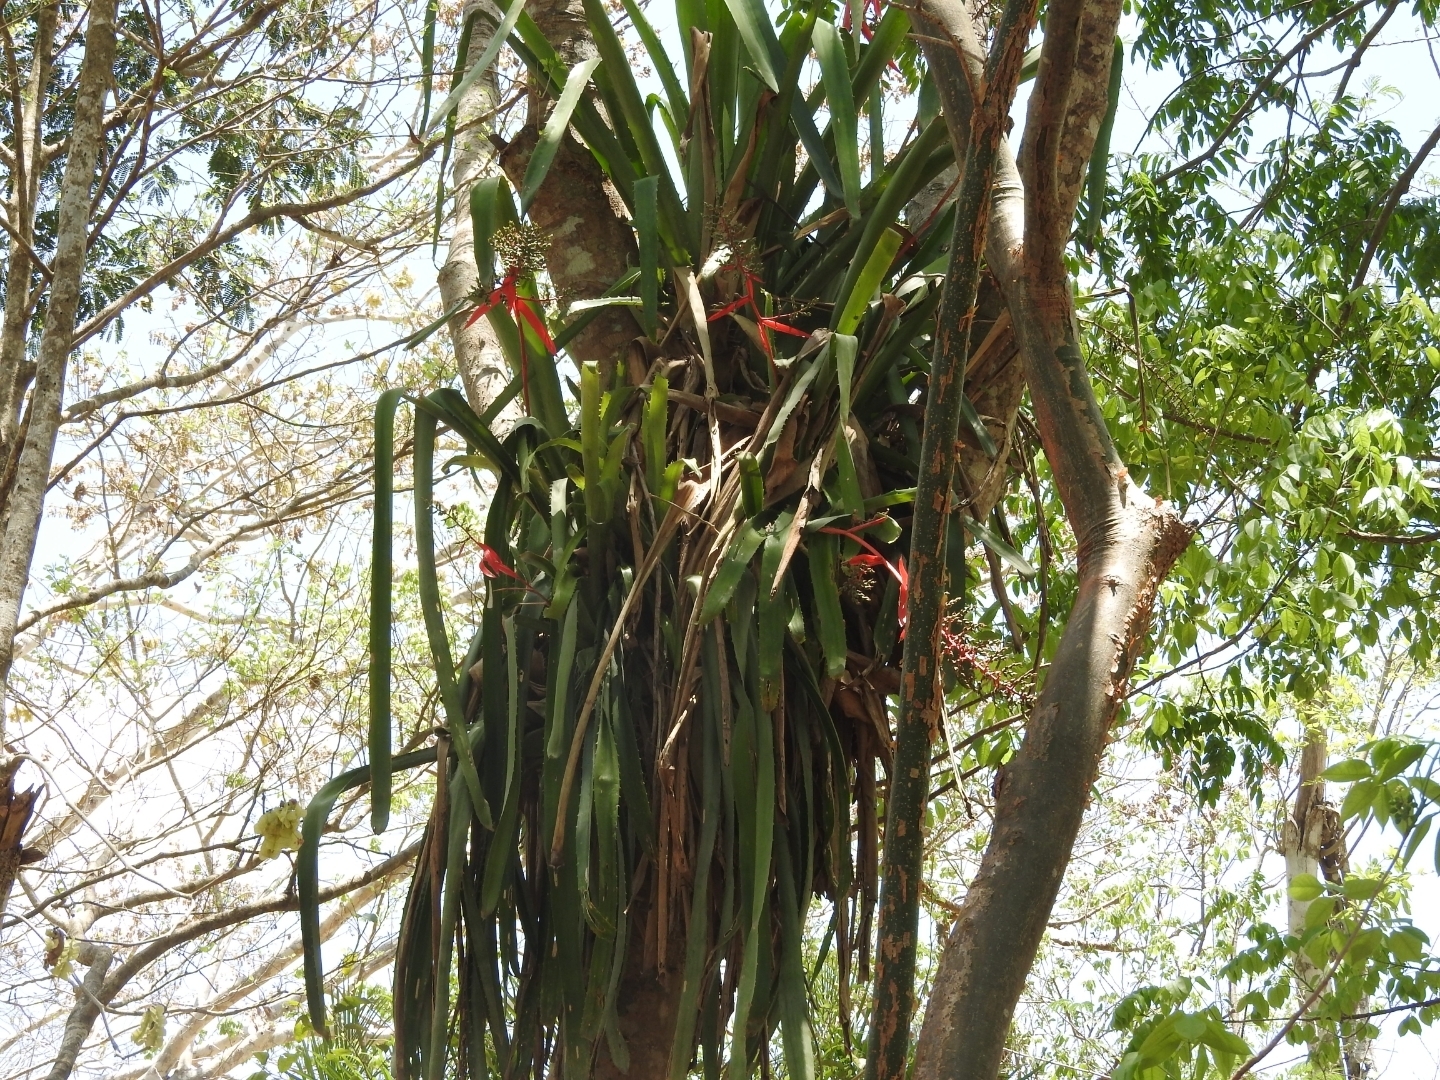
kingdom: Plantae
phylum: Tracheophyta
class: Liliopsida
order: Poales
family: Bromeliaceae
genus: Aechmea
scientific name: Aechmea bracteata
